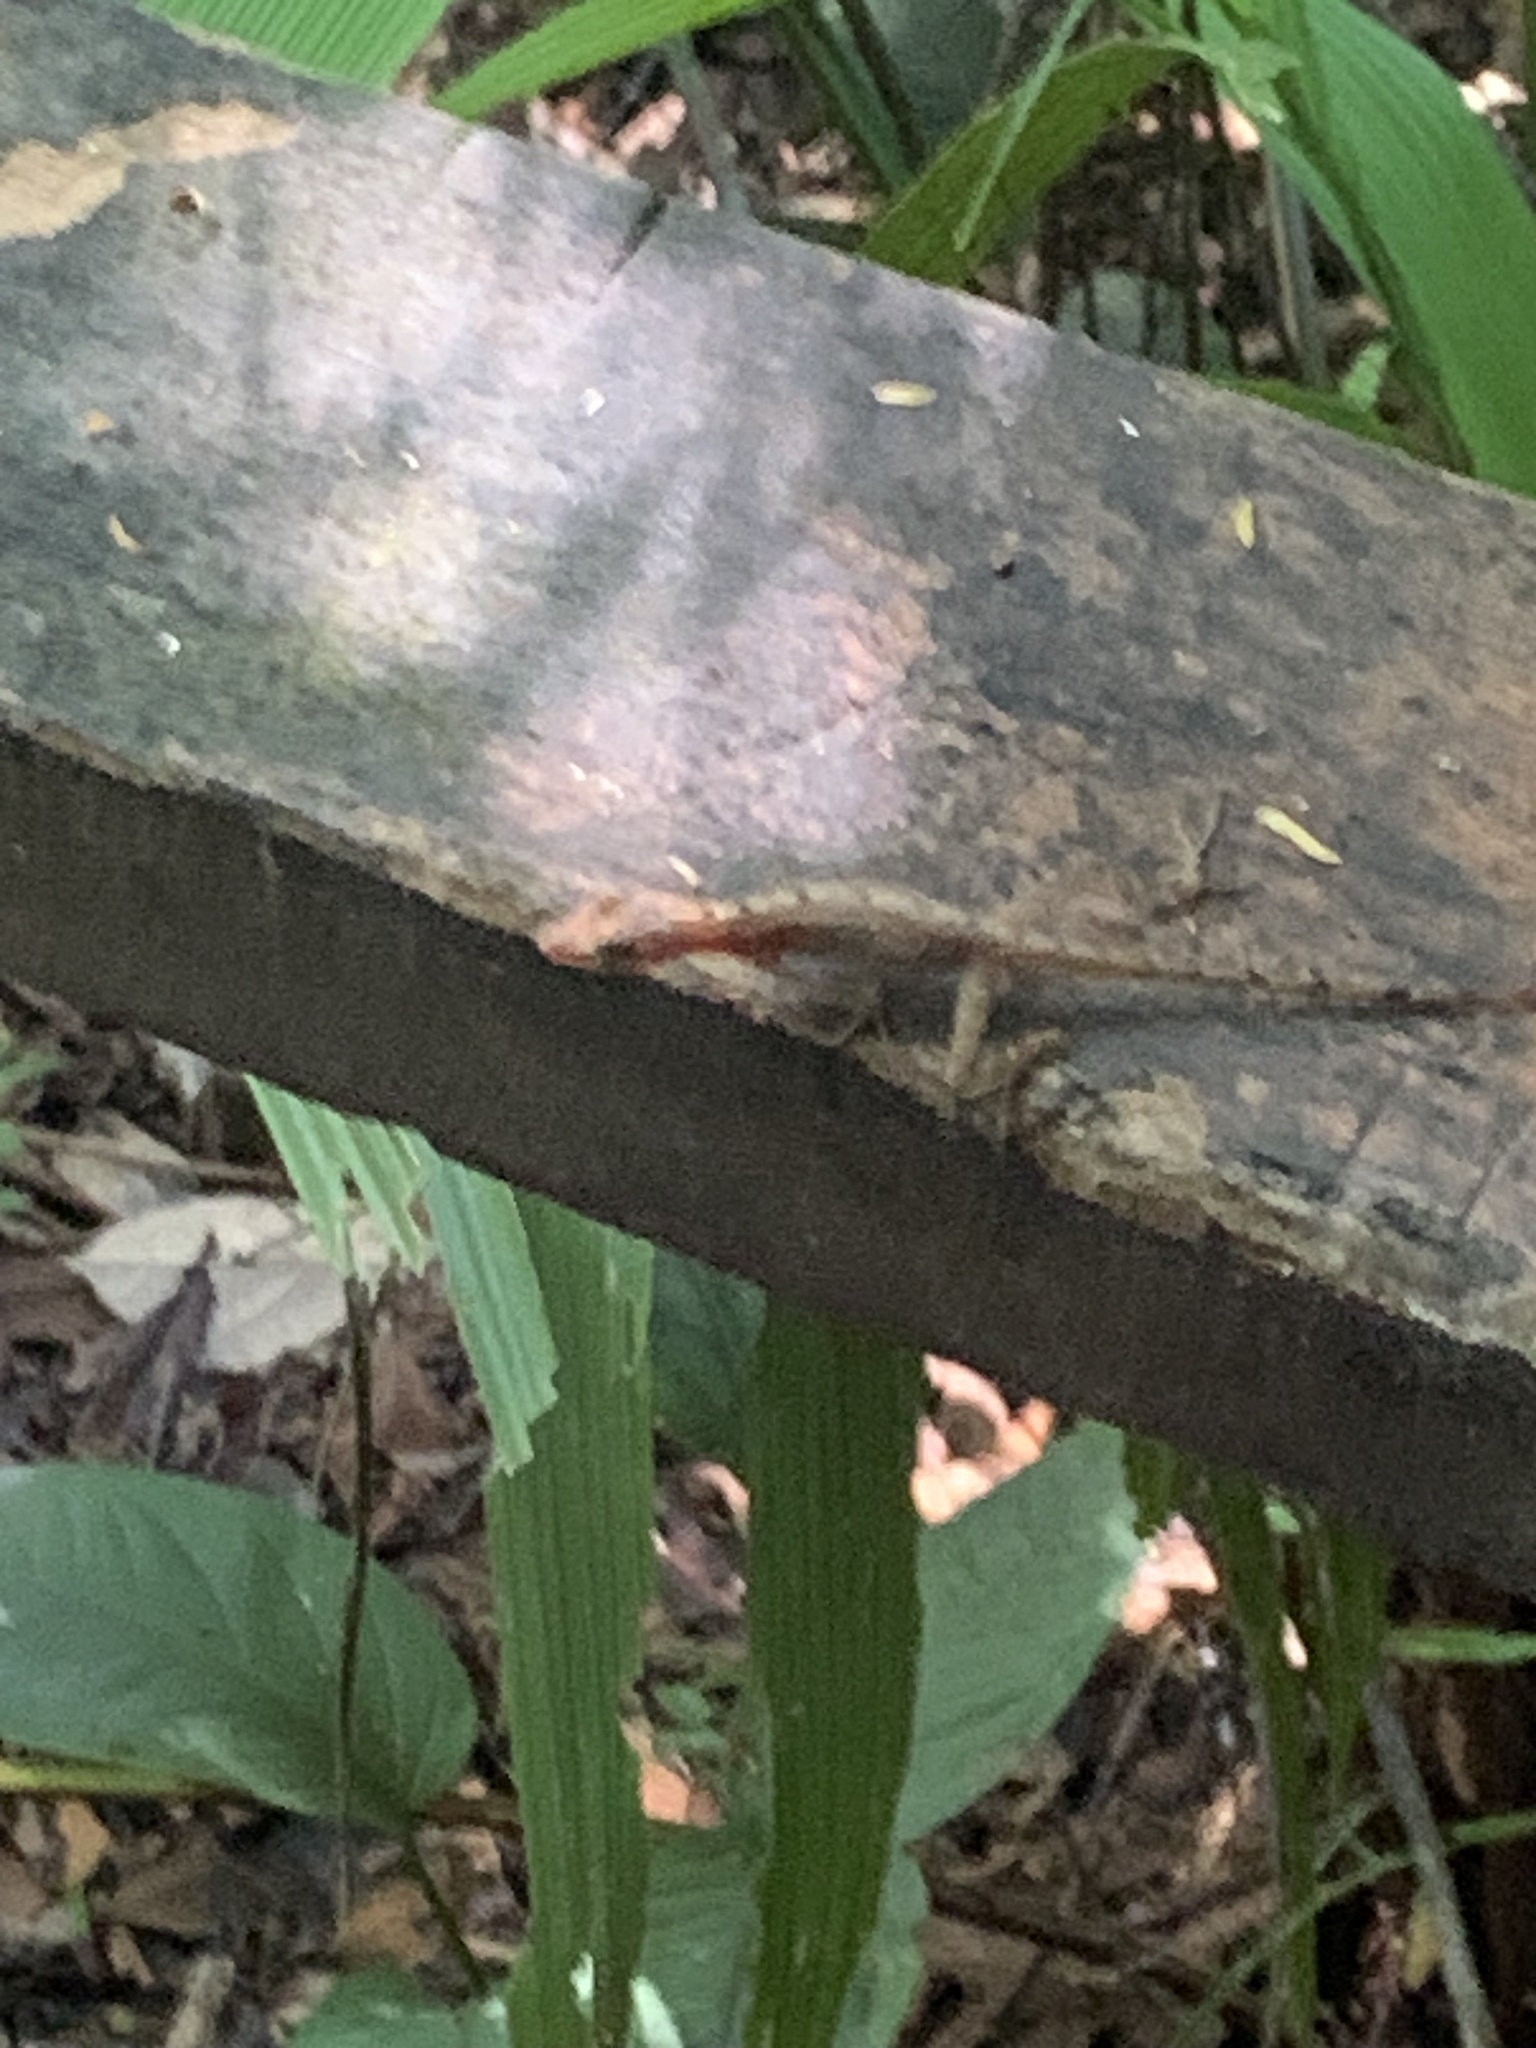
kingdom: Animalia
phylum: Chordata
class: Squamata
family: Dactyloidae
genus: Anolis
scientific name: Anolis limifrons
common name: Border anole
